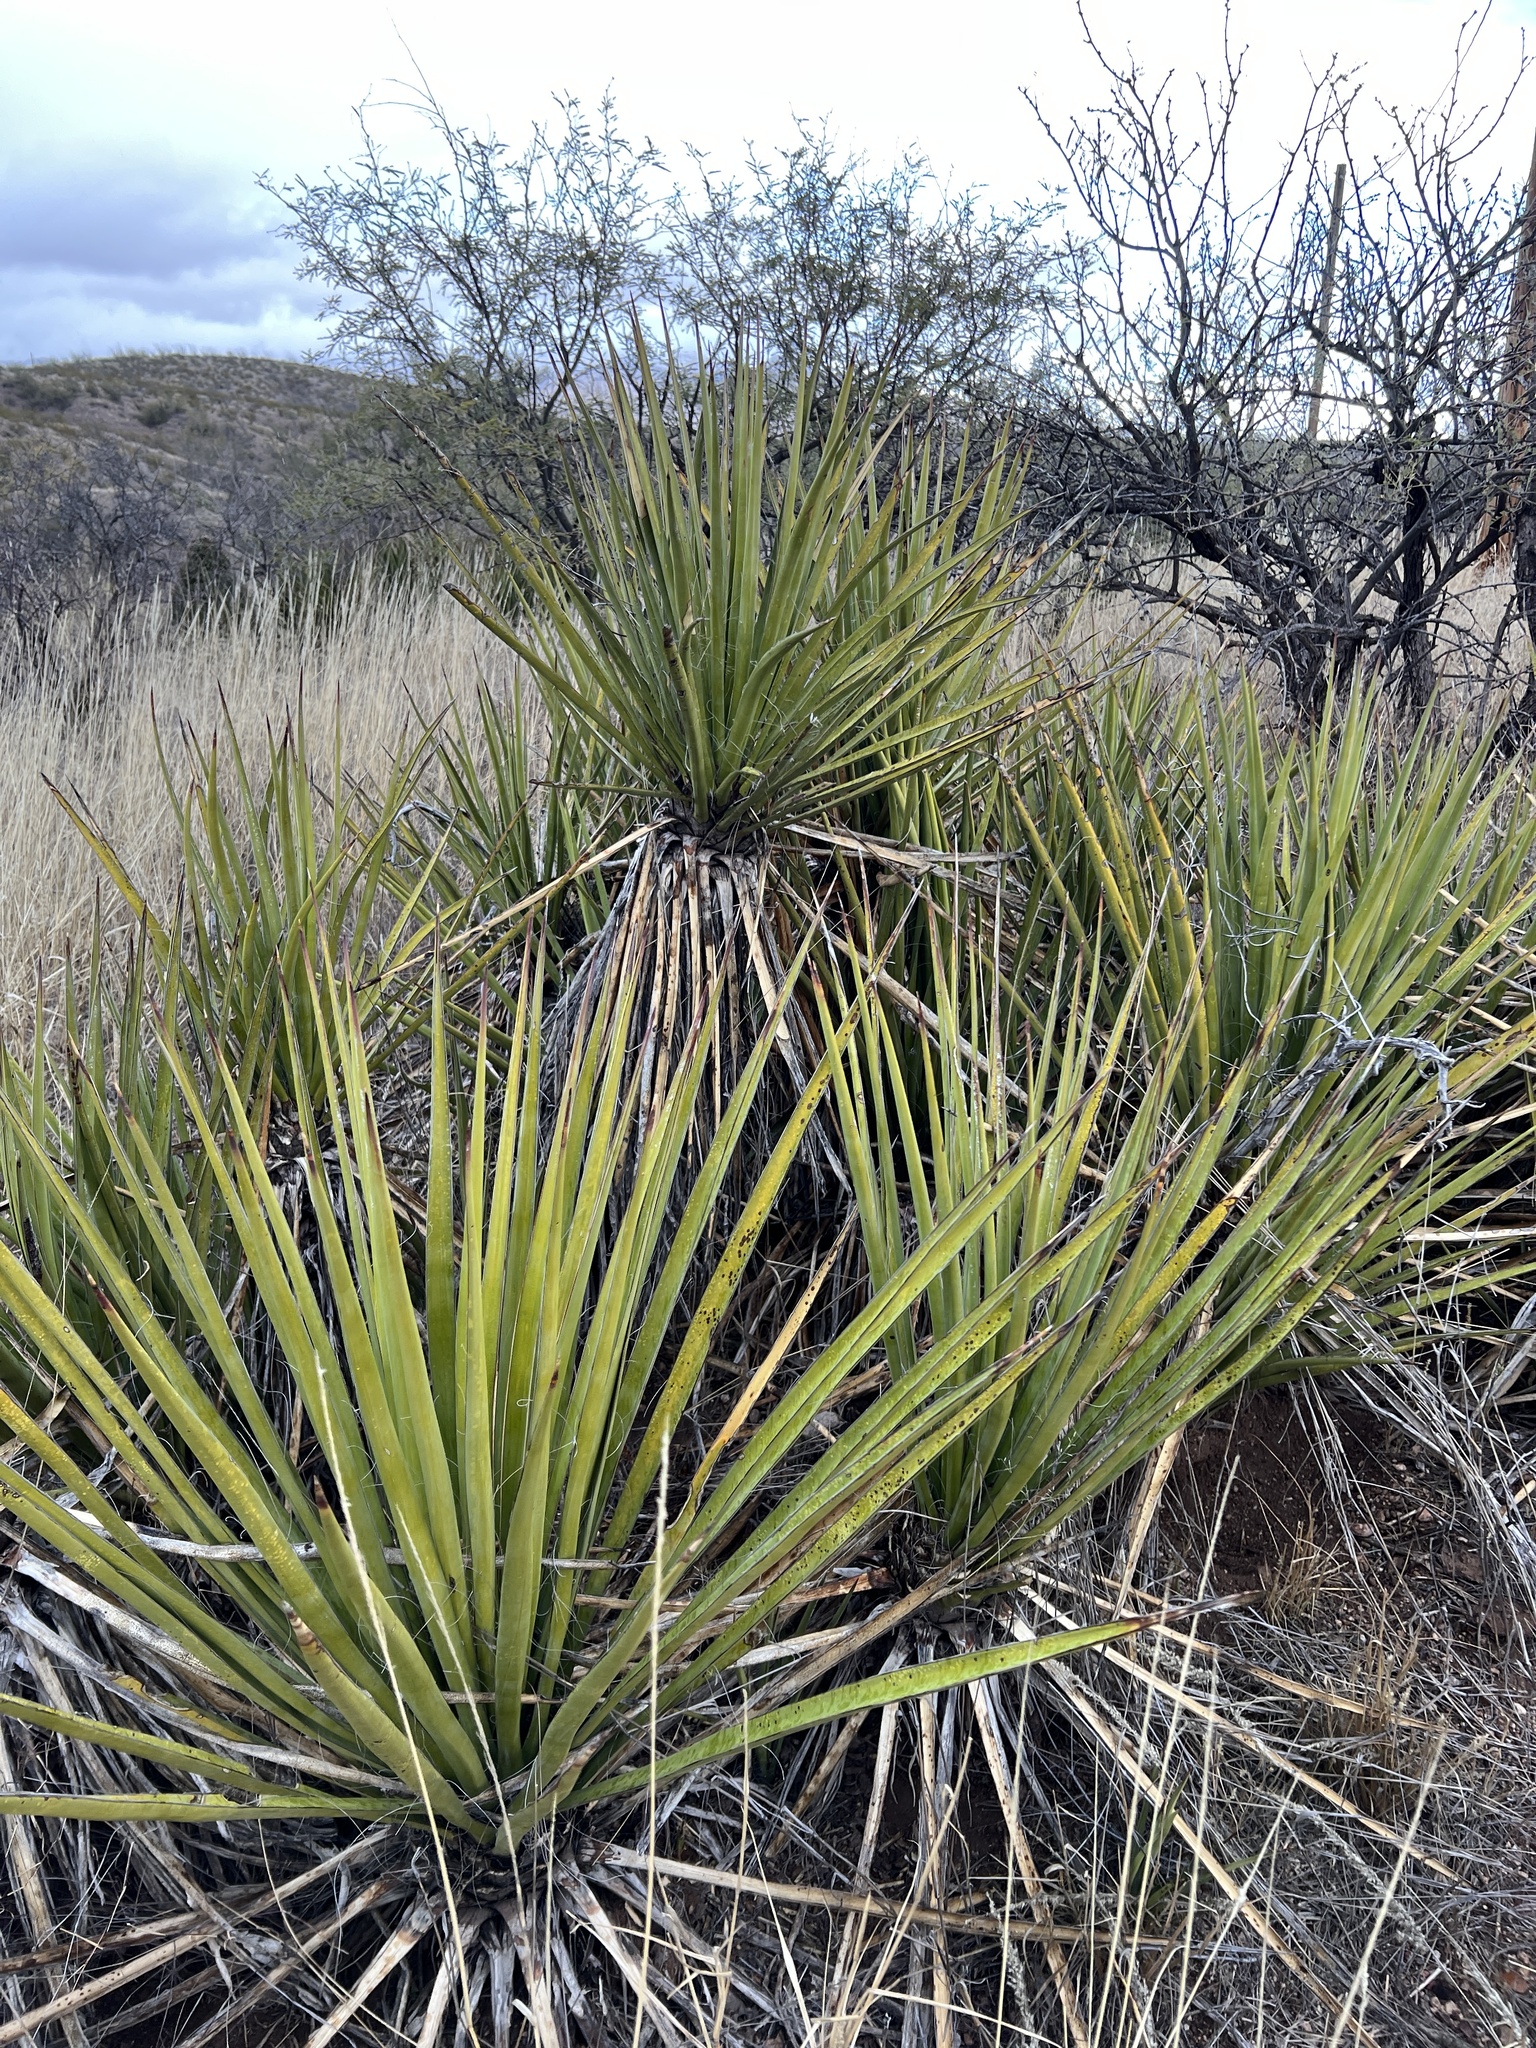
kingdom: Plantae
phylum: Tracheophyta
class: Liliopsida
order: Asparagales
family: Asparagaceae
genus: Yucca
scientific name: Yucca baccata
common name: Banana yucca
